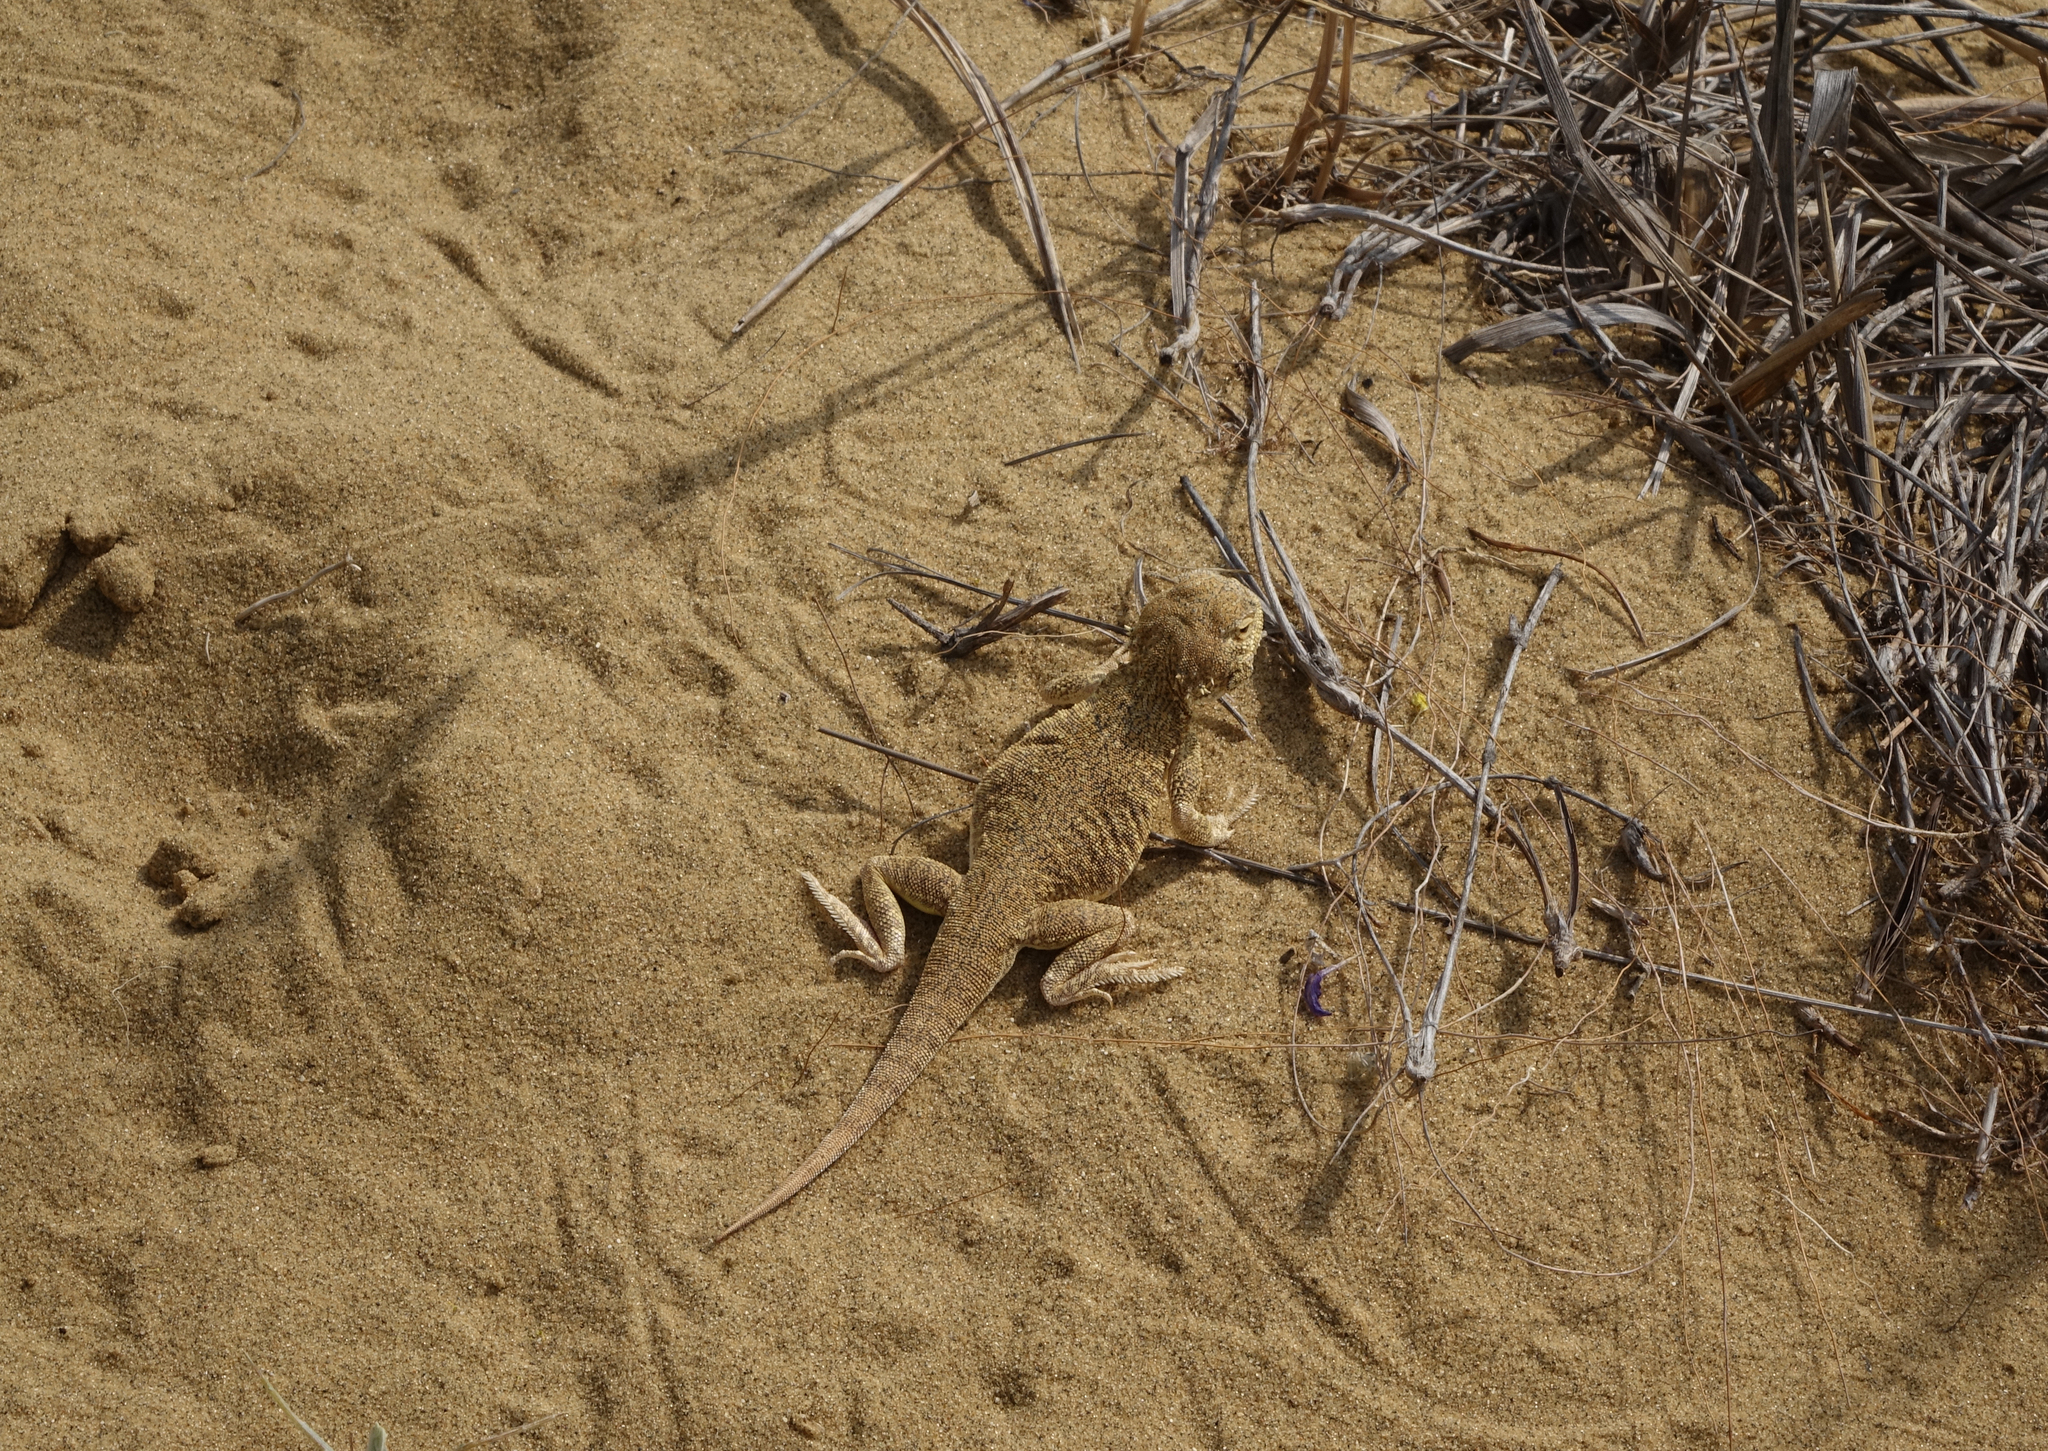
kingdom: Animalia
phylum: Chordata
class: Squamata
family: Agamidae
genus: Phrynocephalus
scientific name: Phrynocephalus mystaceus
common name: Secret toadhead agama
